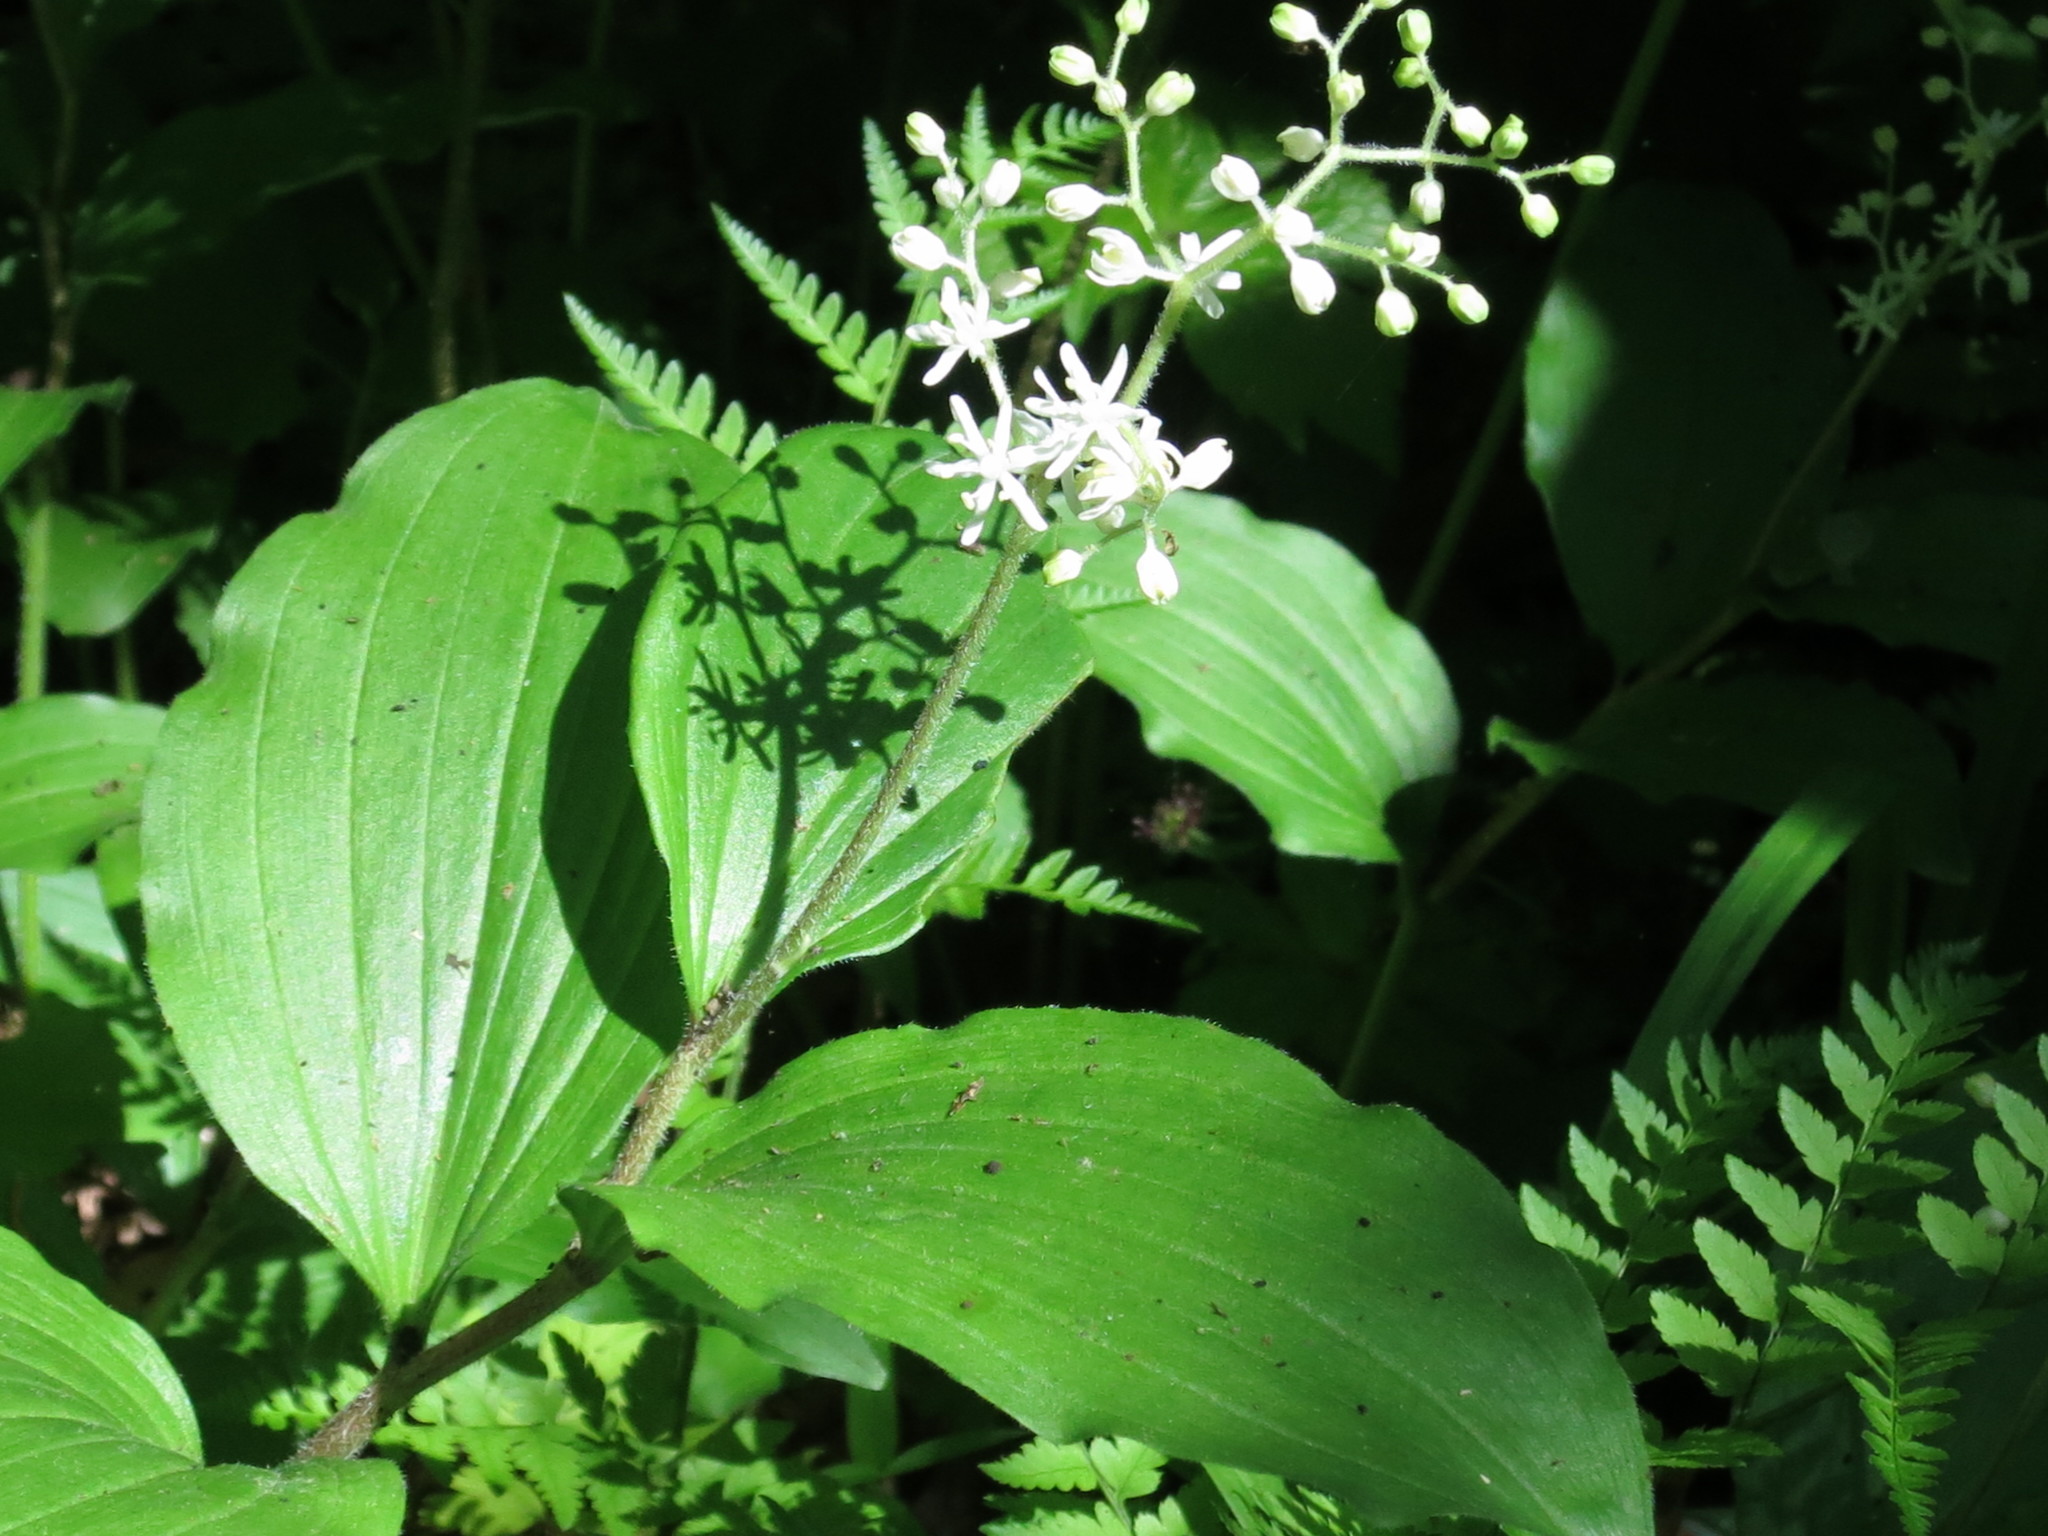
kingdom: Plantae
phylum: Tracheophyta
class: Liliopsida
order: Asparagales
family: Asparagaceae
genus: Maianthemum
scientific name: Maianthemum japonicum
